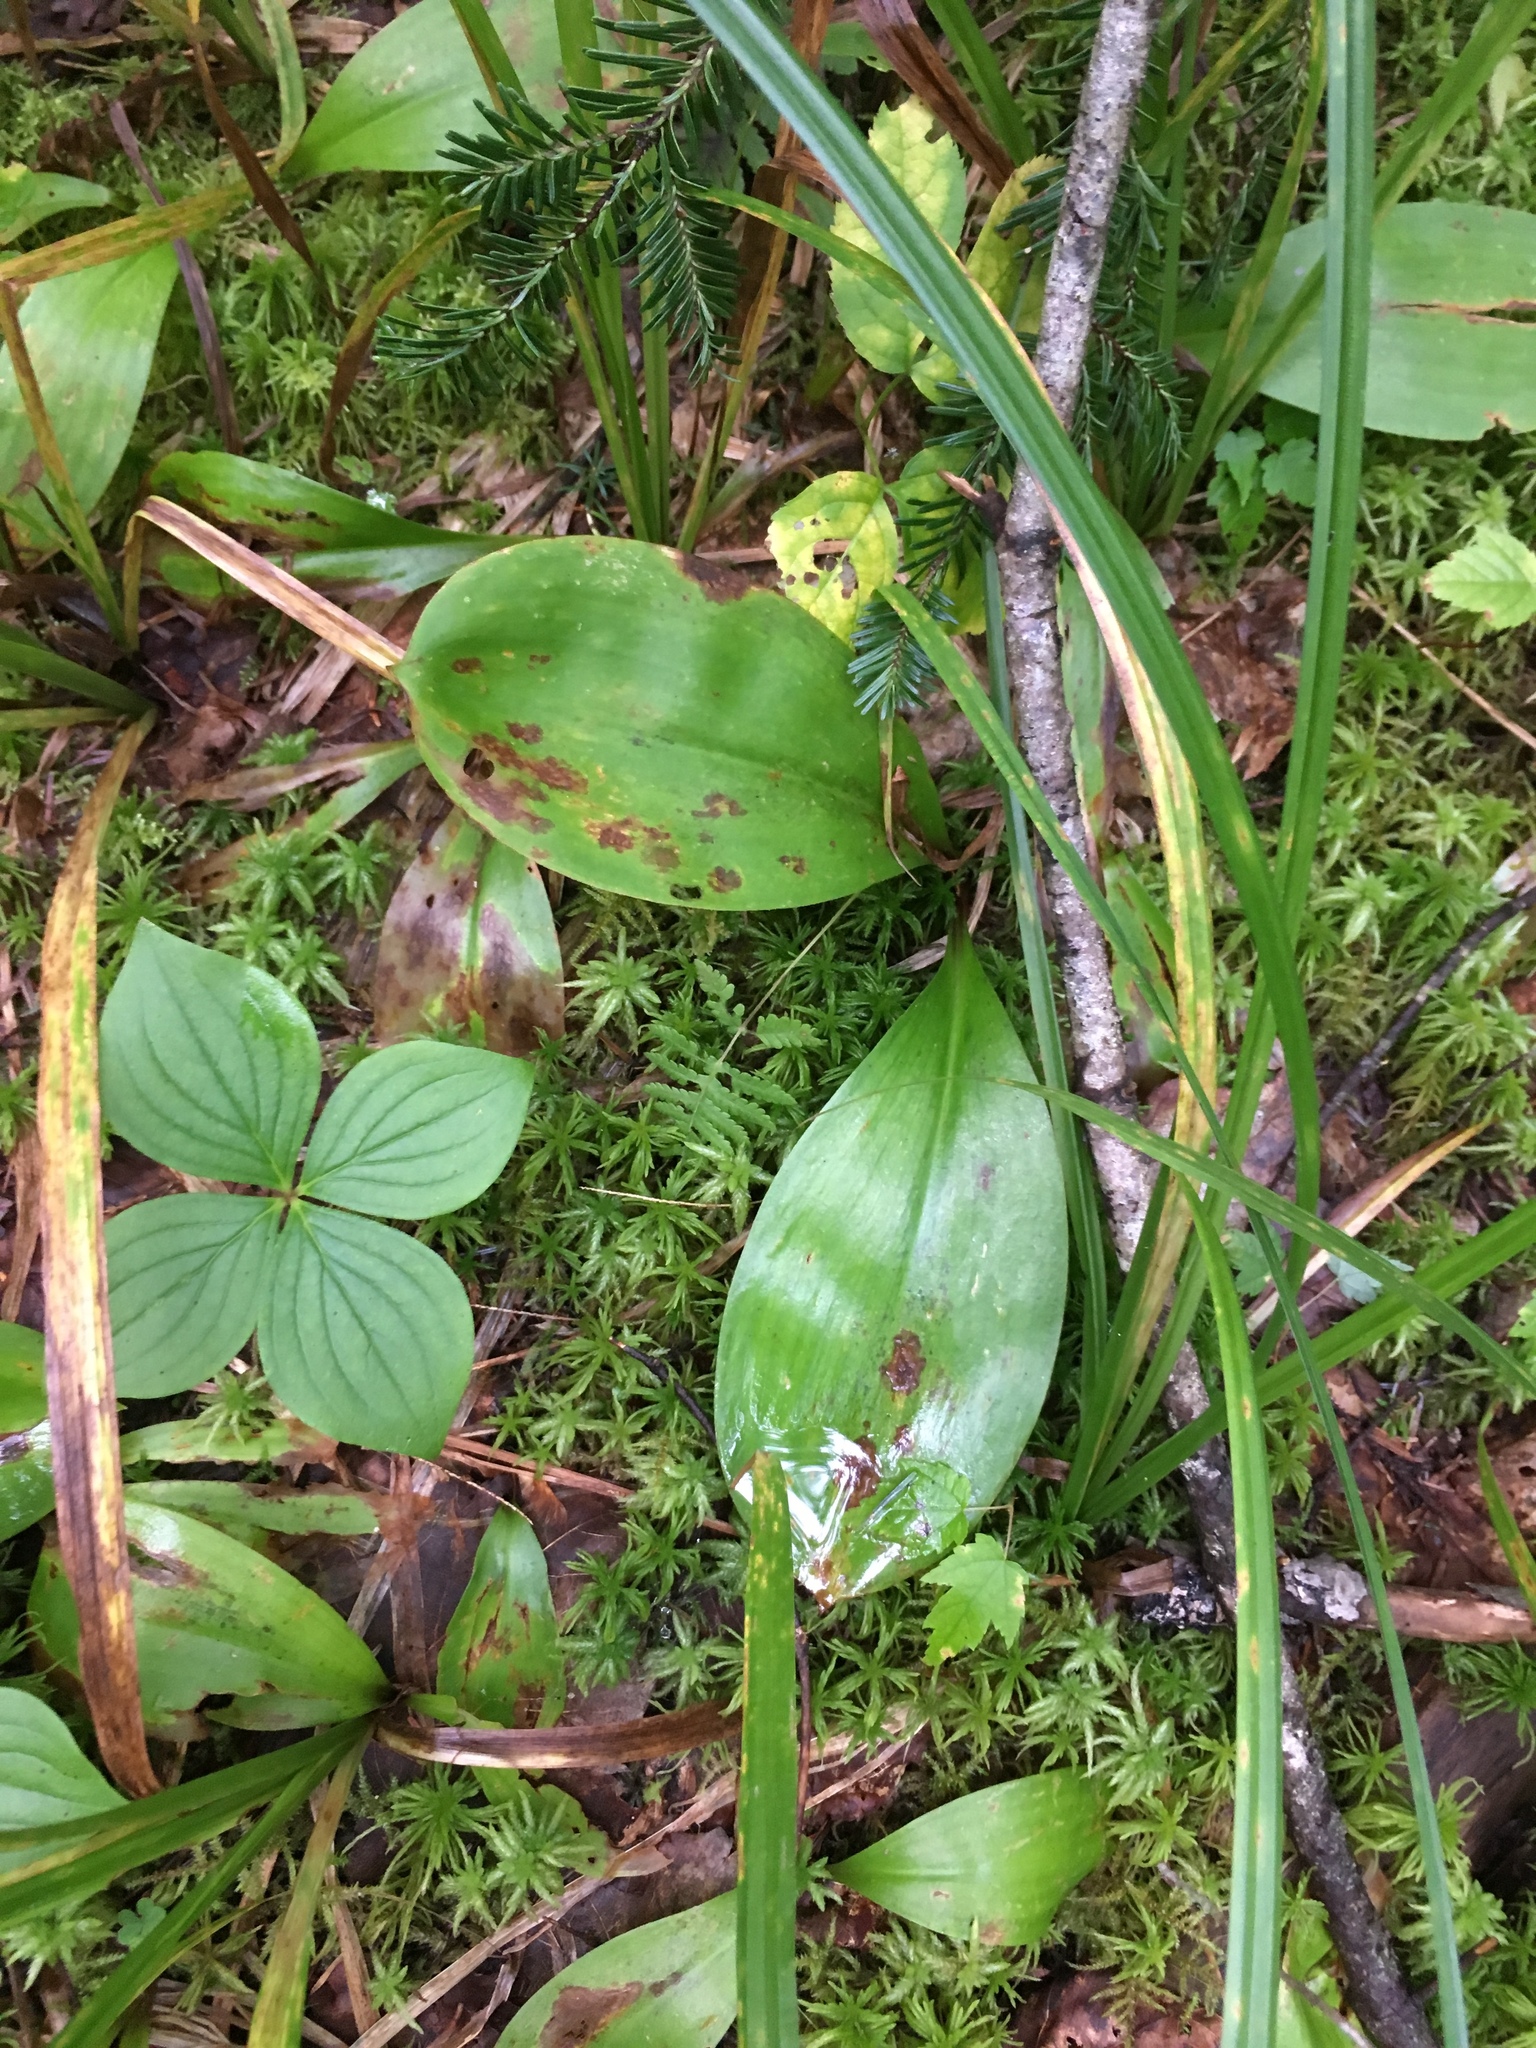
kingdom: Plantae
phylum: Tracheophyta
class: Liliopsida
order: Liliales
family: Liliaceae
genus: Clintonia
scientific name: Clintonia borealis
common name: Yellow clintonia
